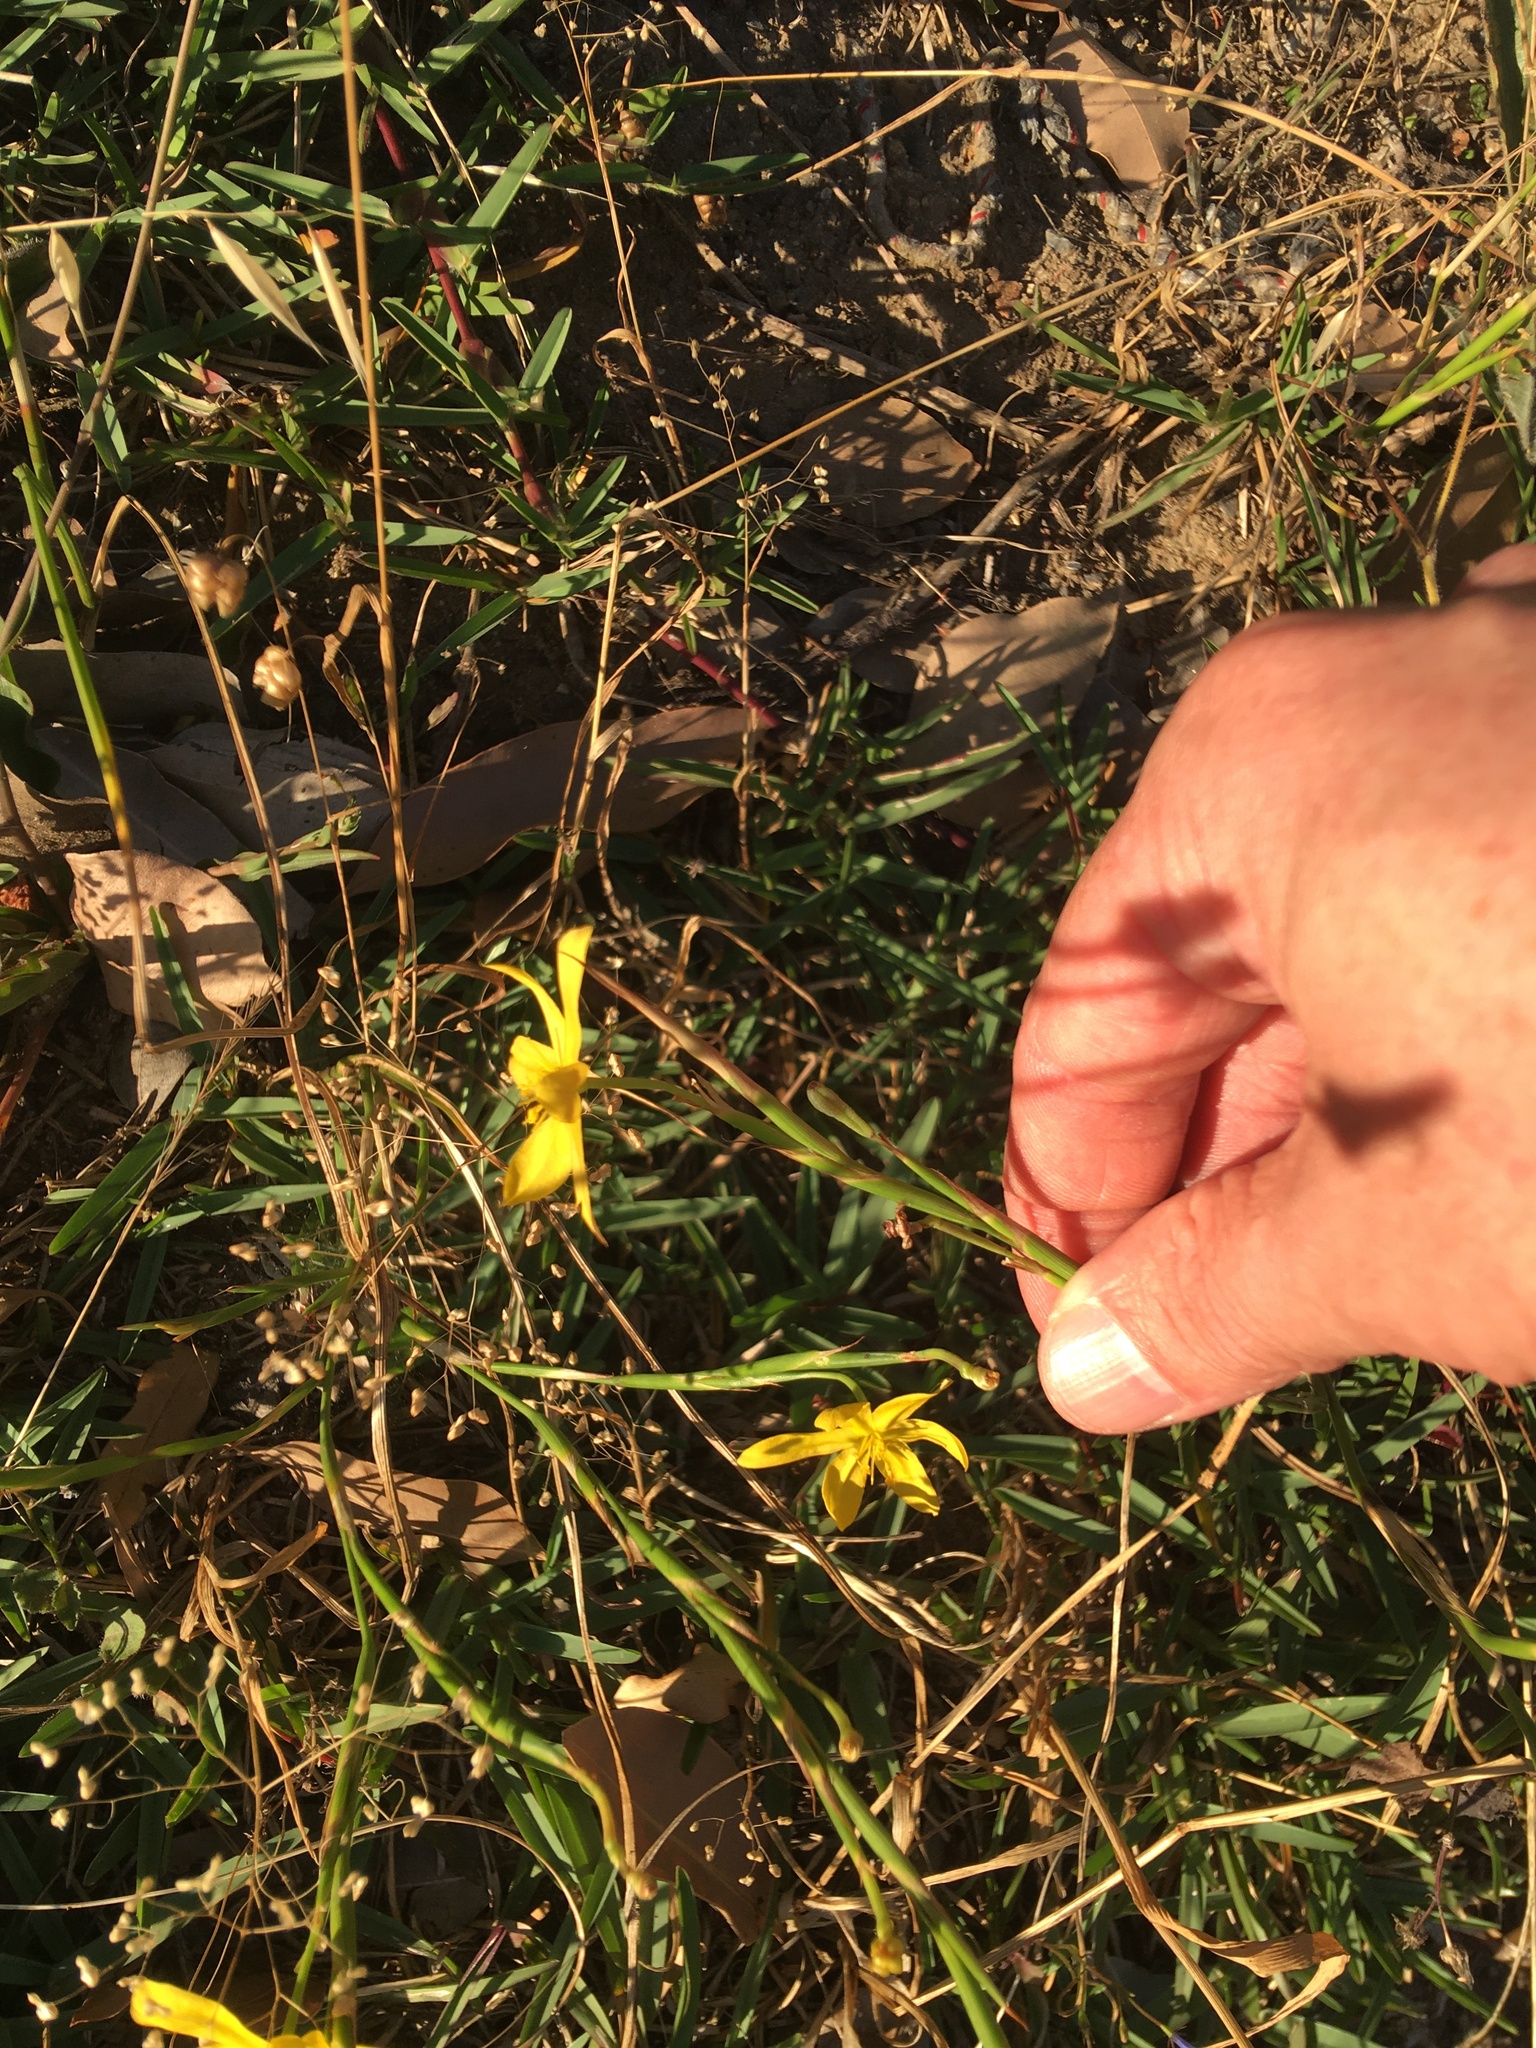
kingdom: Plantae
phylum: Tracheophyta
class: Liliopsida
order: Asparagales
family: Iridaceae
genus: Moraea
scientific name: Moraea lewisiae
